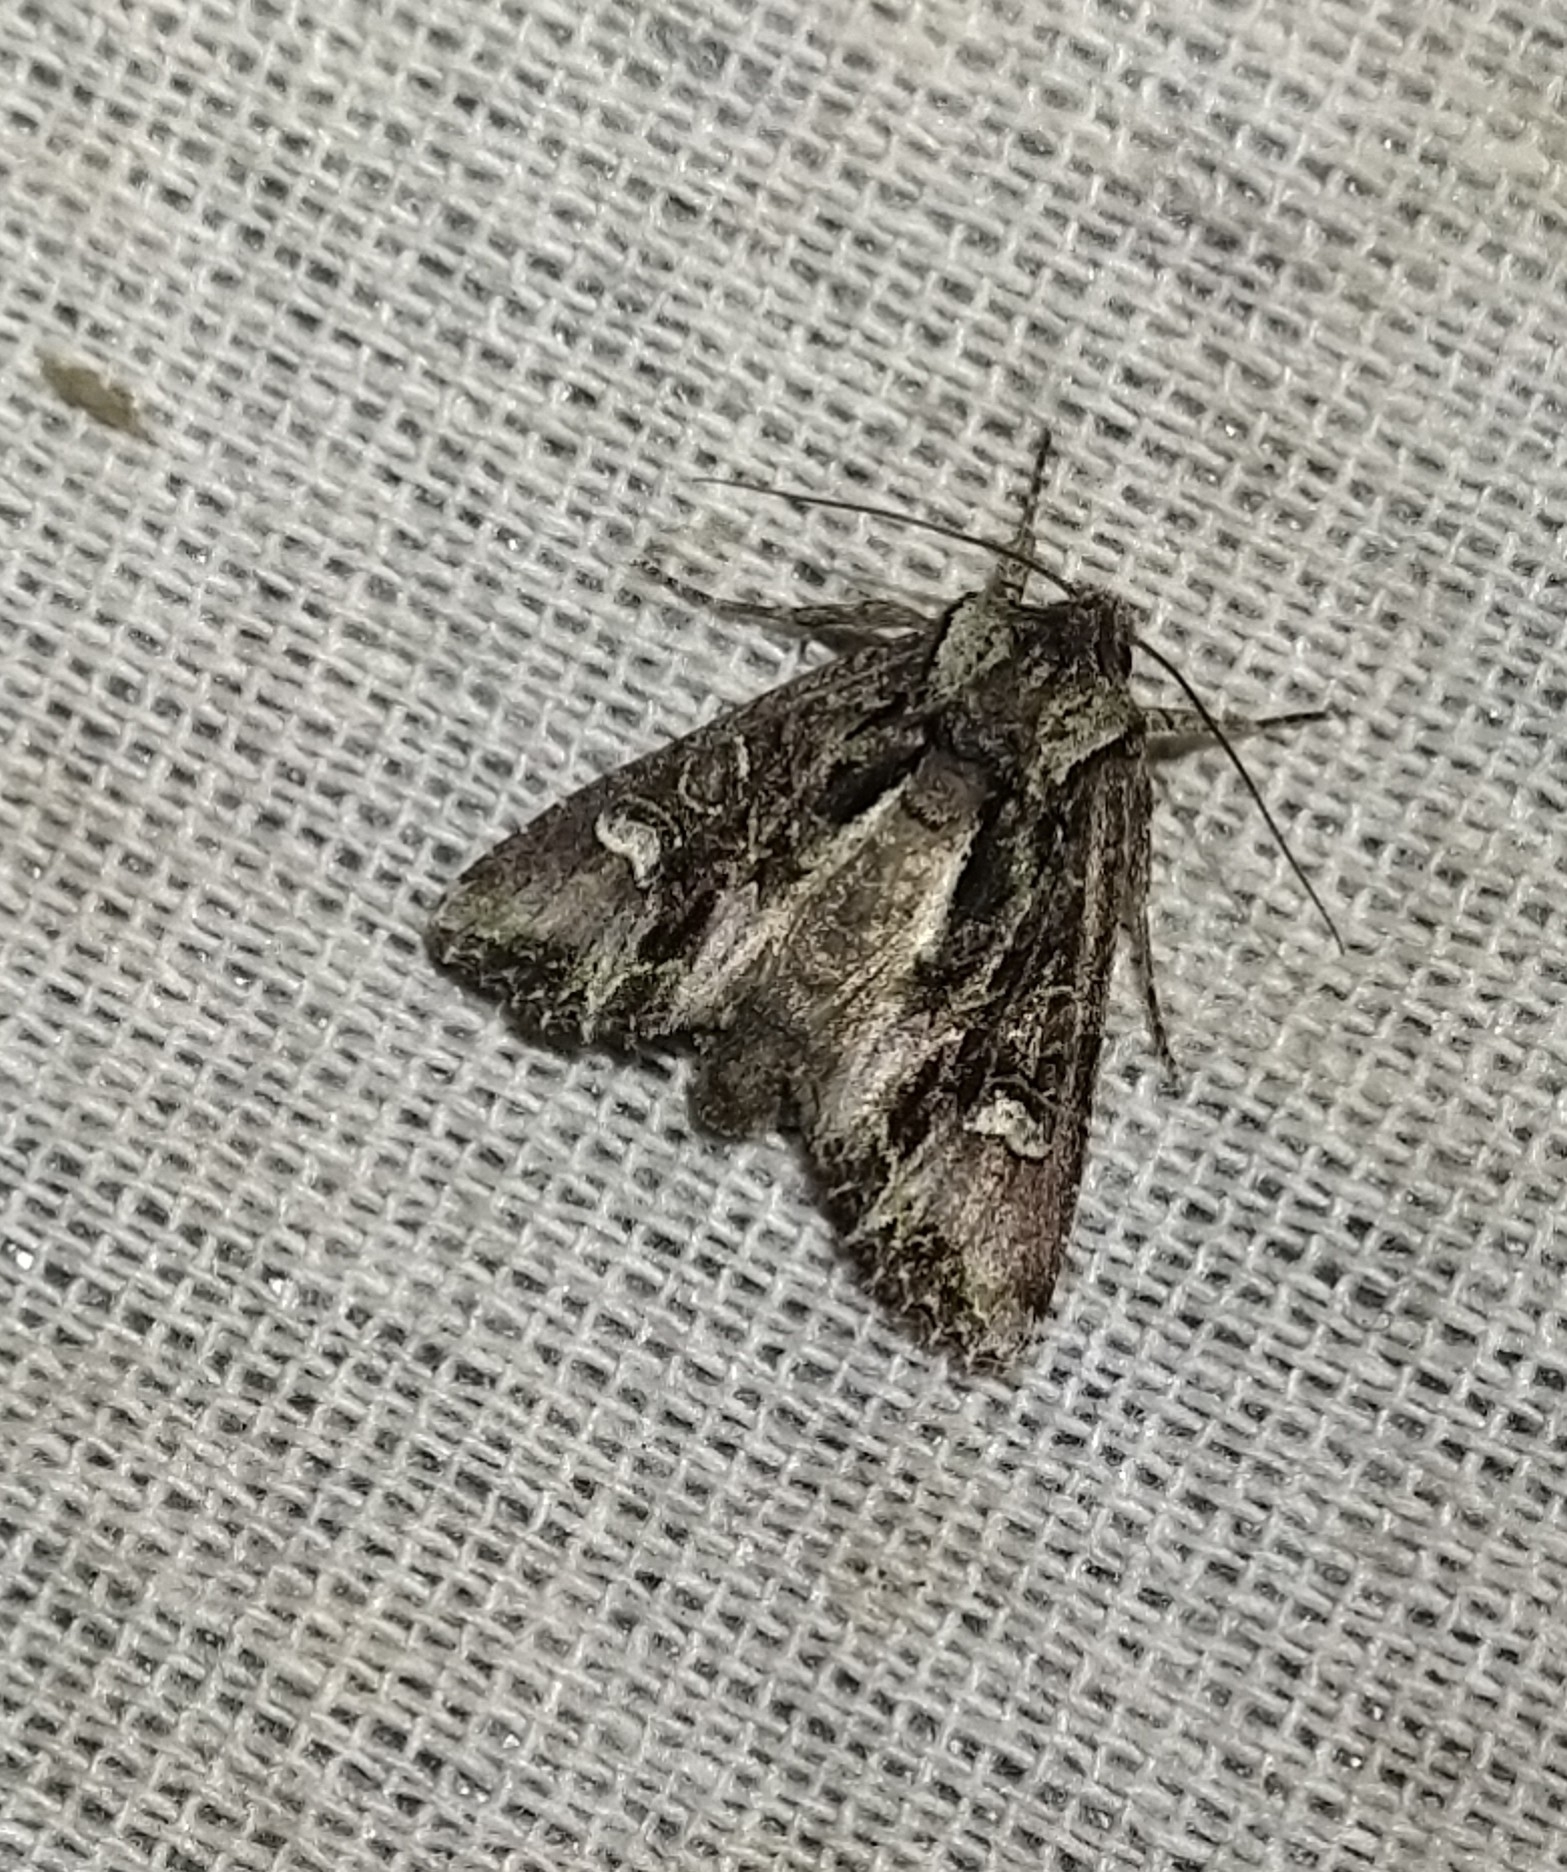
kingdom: Animalia
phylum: Arthropoda
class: Insecta
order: Lepidoptera
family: Noctuidae
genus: Ichneutica
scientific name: Ichneutica insignis
